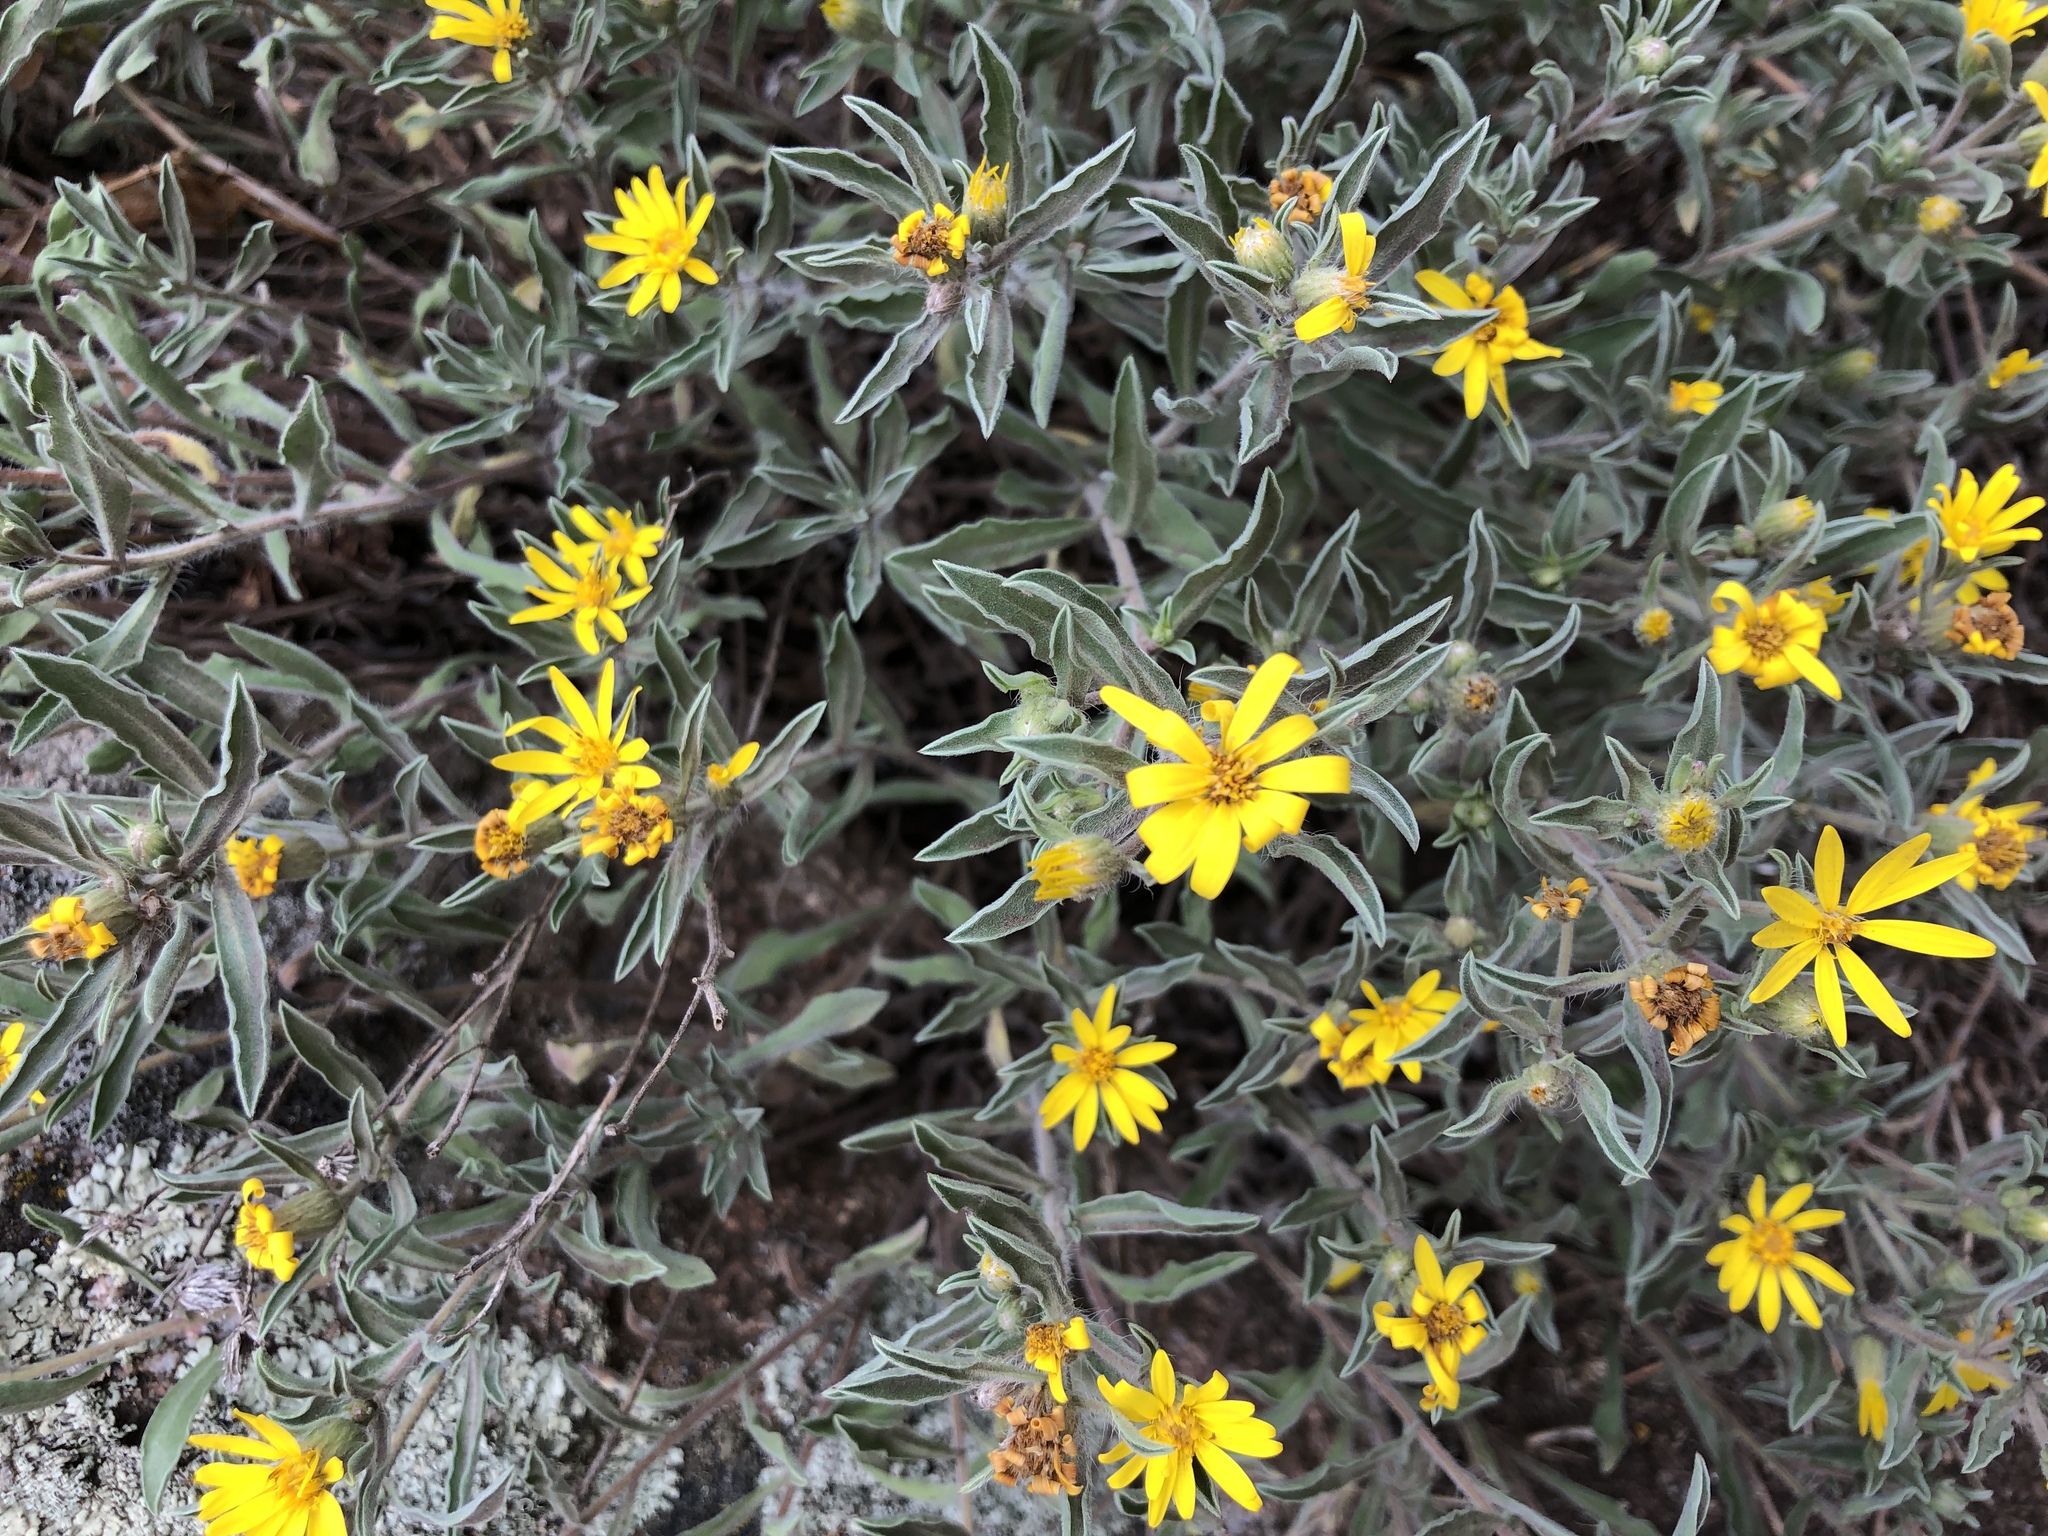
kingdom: Plantae
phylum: Tracheophyta
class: Magnoliopsida
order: Asterales
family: Asteraceae
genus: Heterotheca
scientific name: Heterotheca pumila
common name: Alpine golden-aster
